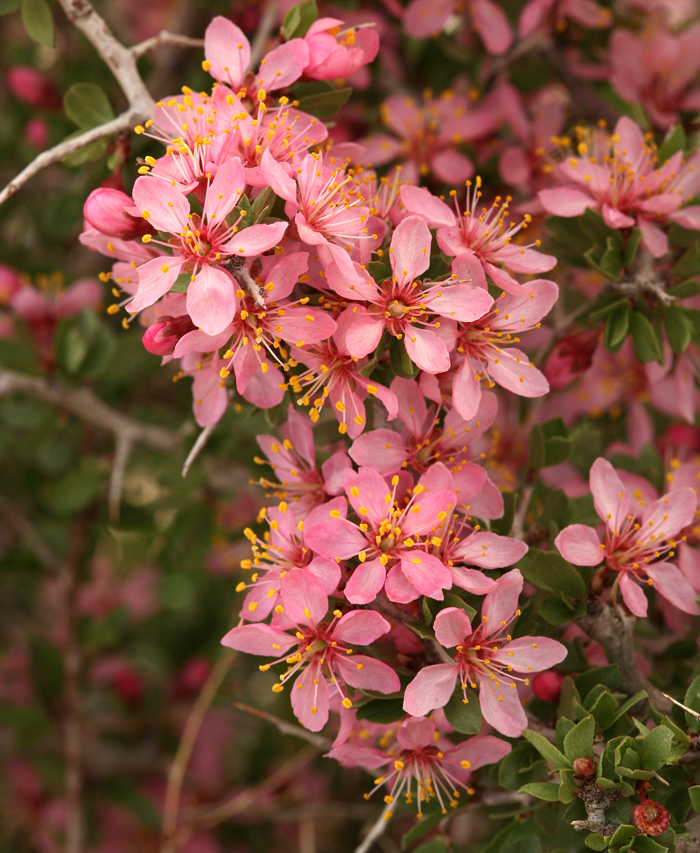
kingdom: Plantae
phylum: Tracheophyta
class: Magnoliopsida
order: Rosales
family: Rosaceae
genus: Prunus
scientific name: Prunus andersonii
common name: Desert peach
